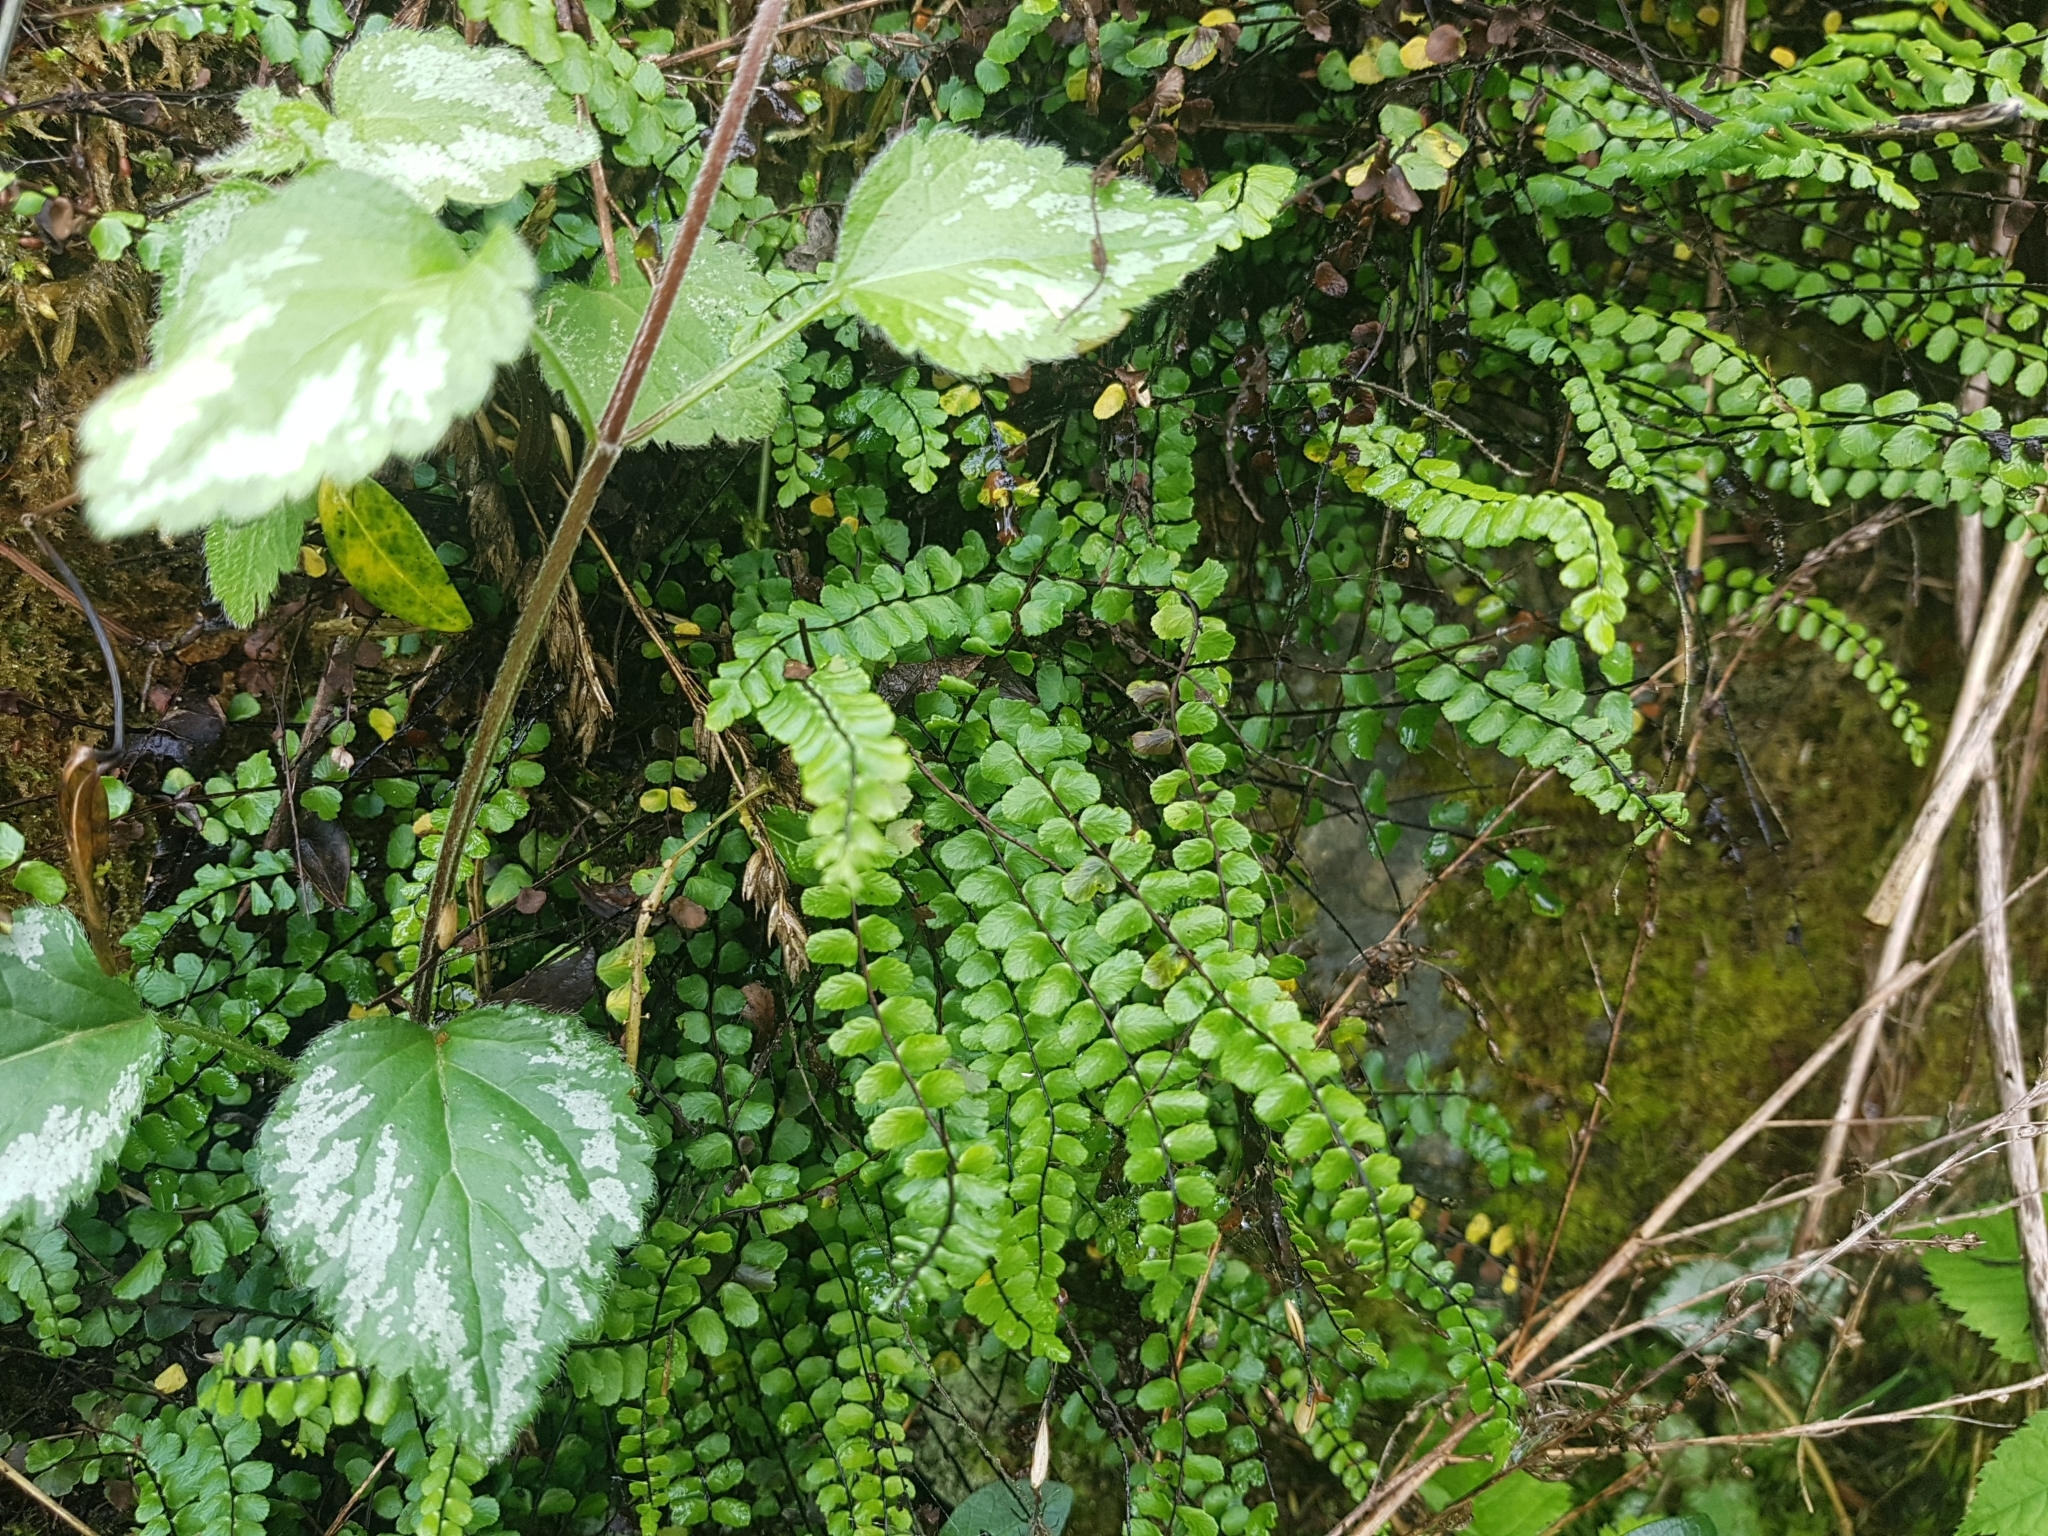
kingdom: Plantae
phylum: Tracheophyta
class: Polypodiopsida
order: Polypodiales
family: Aspleniaceae
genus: Asplenium
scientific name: Asplenium trichomanes
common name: Maidenhair spleenwort
